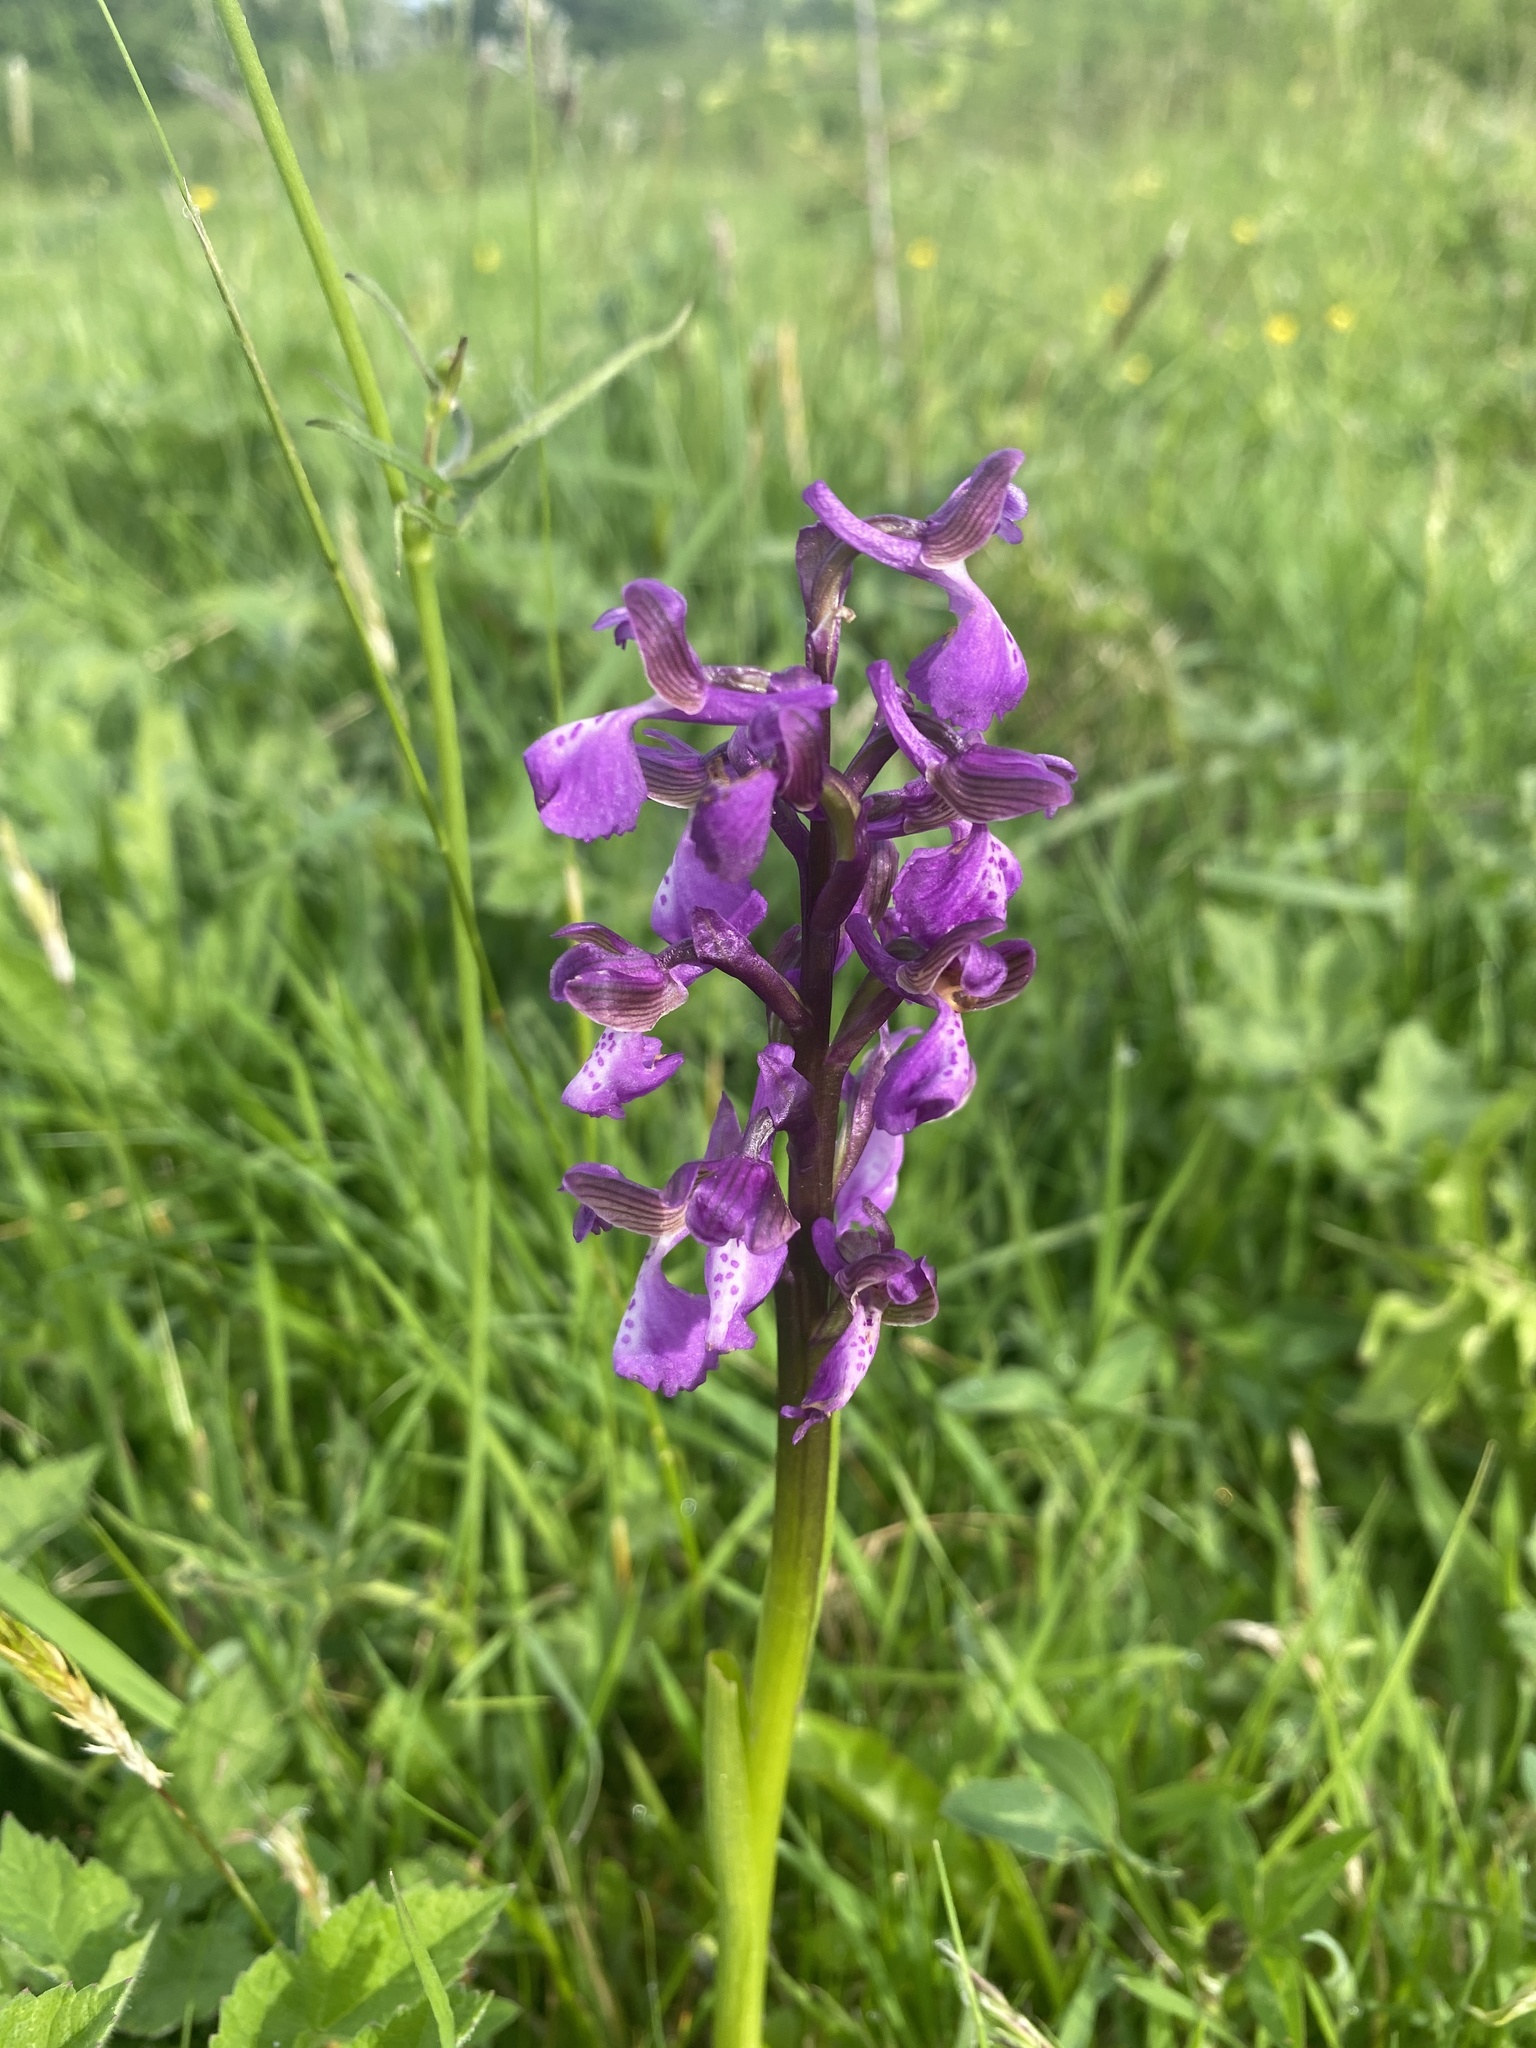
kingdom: Plantae
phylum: Tracheophyta
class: Liliopsida
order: Asparagales
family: Orchidaceae
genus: Anacamptis
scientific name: Anacamptis morio
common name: Green-winged orchid
